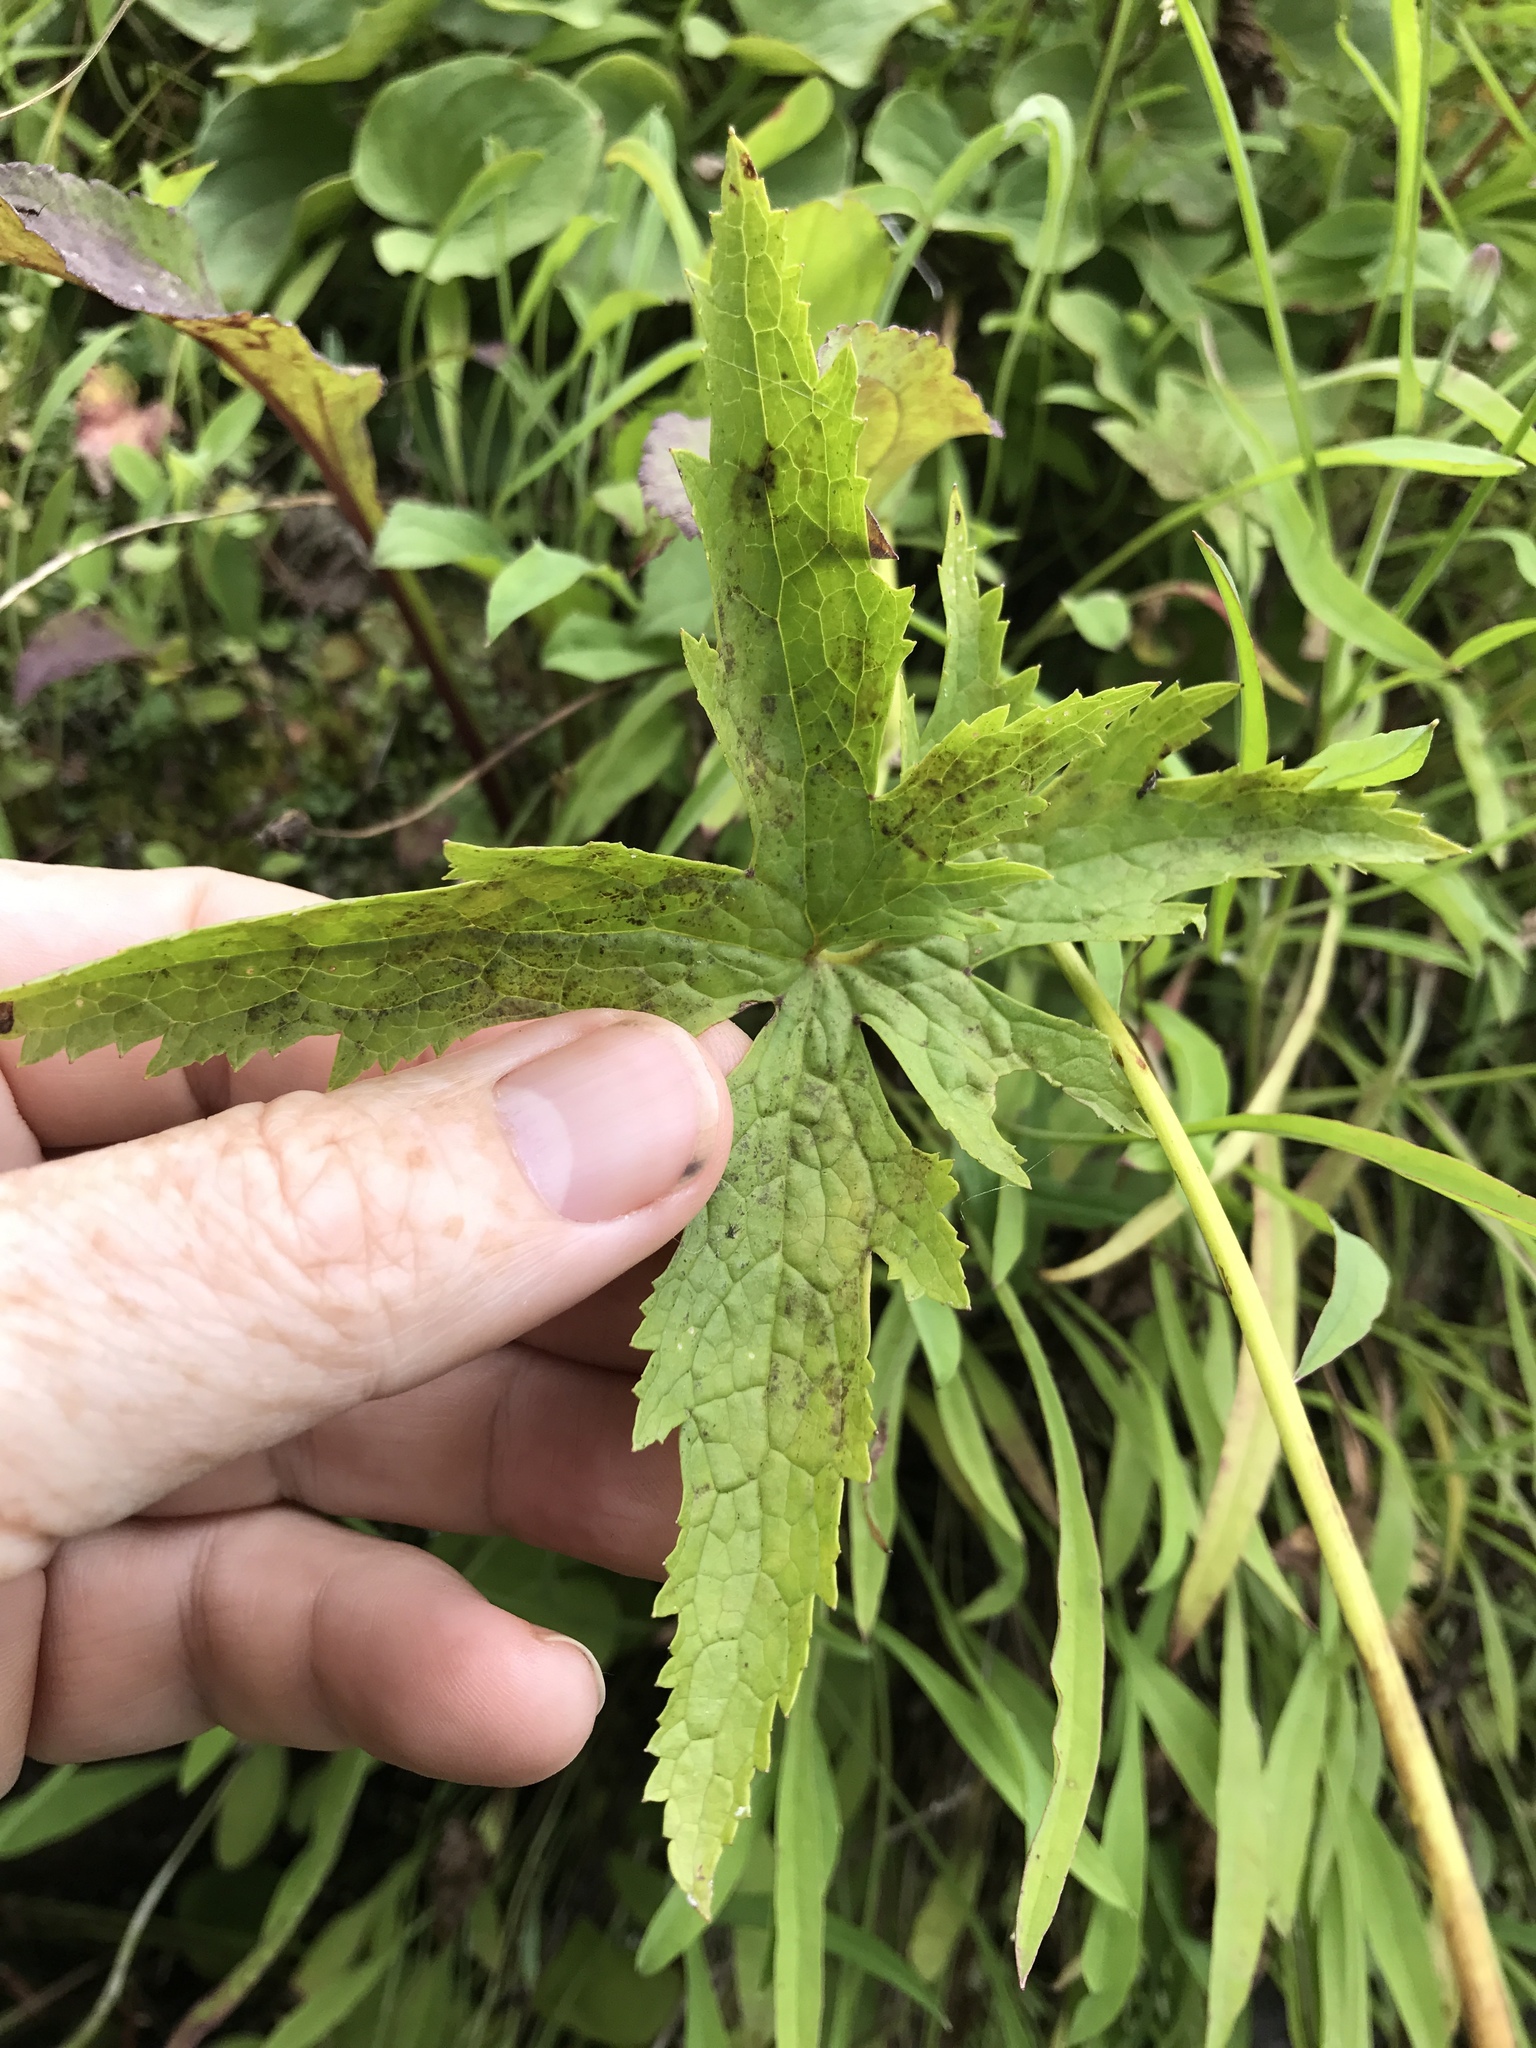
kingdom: Plantae
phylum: Tracheophyta
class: Magnoliopsida
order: Ranunculales
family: Ranunculaceae
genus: Trautvetteria
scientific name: Trautvetteria carolinensis
